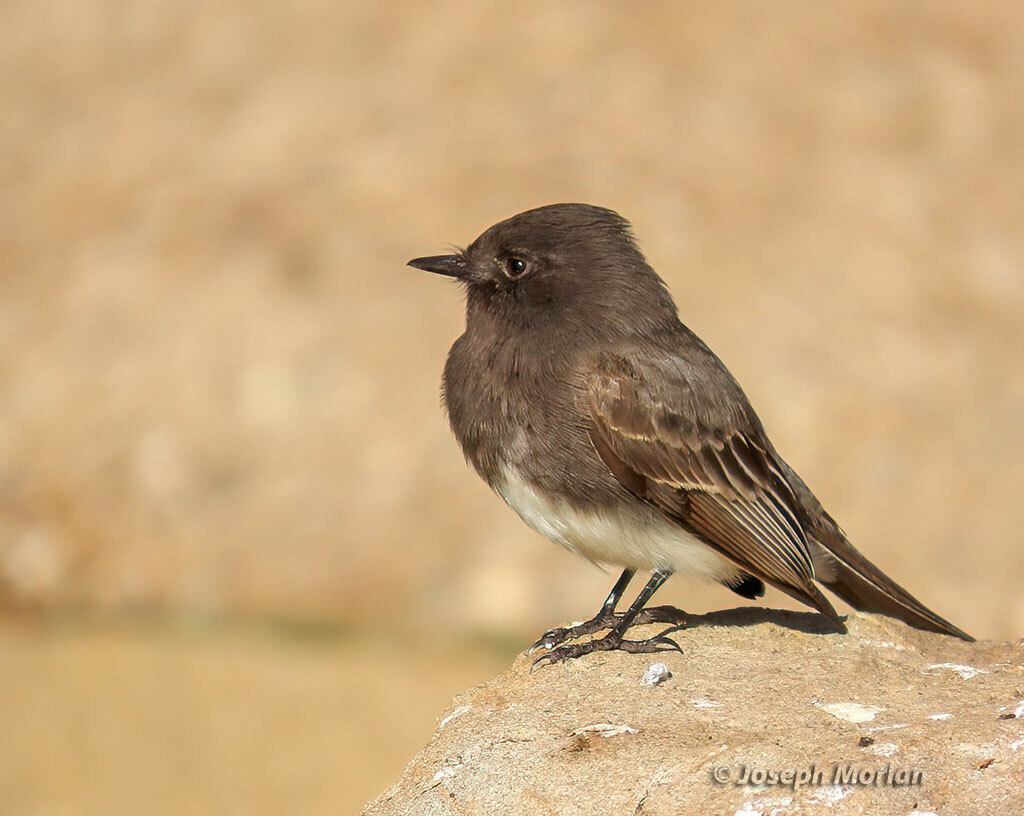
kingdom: Animalia
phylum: Chordata
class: Aves
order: Passeriformes
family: Tyrannidae
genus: Sayornis
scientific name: Sayornis nigricans
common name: Black phoebe
